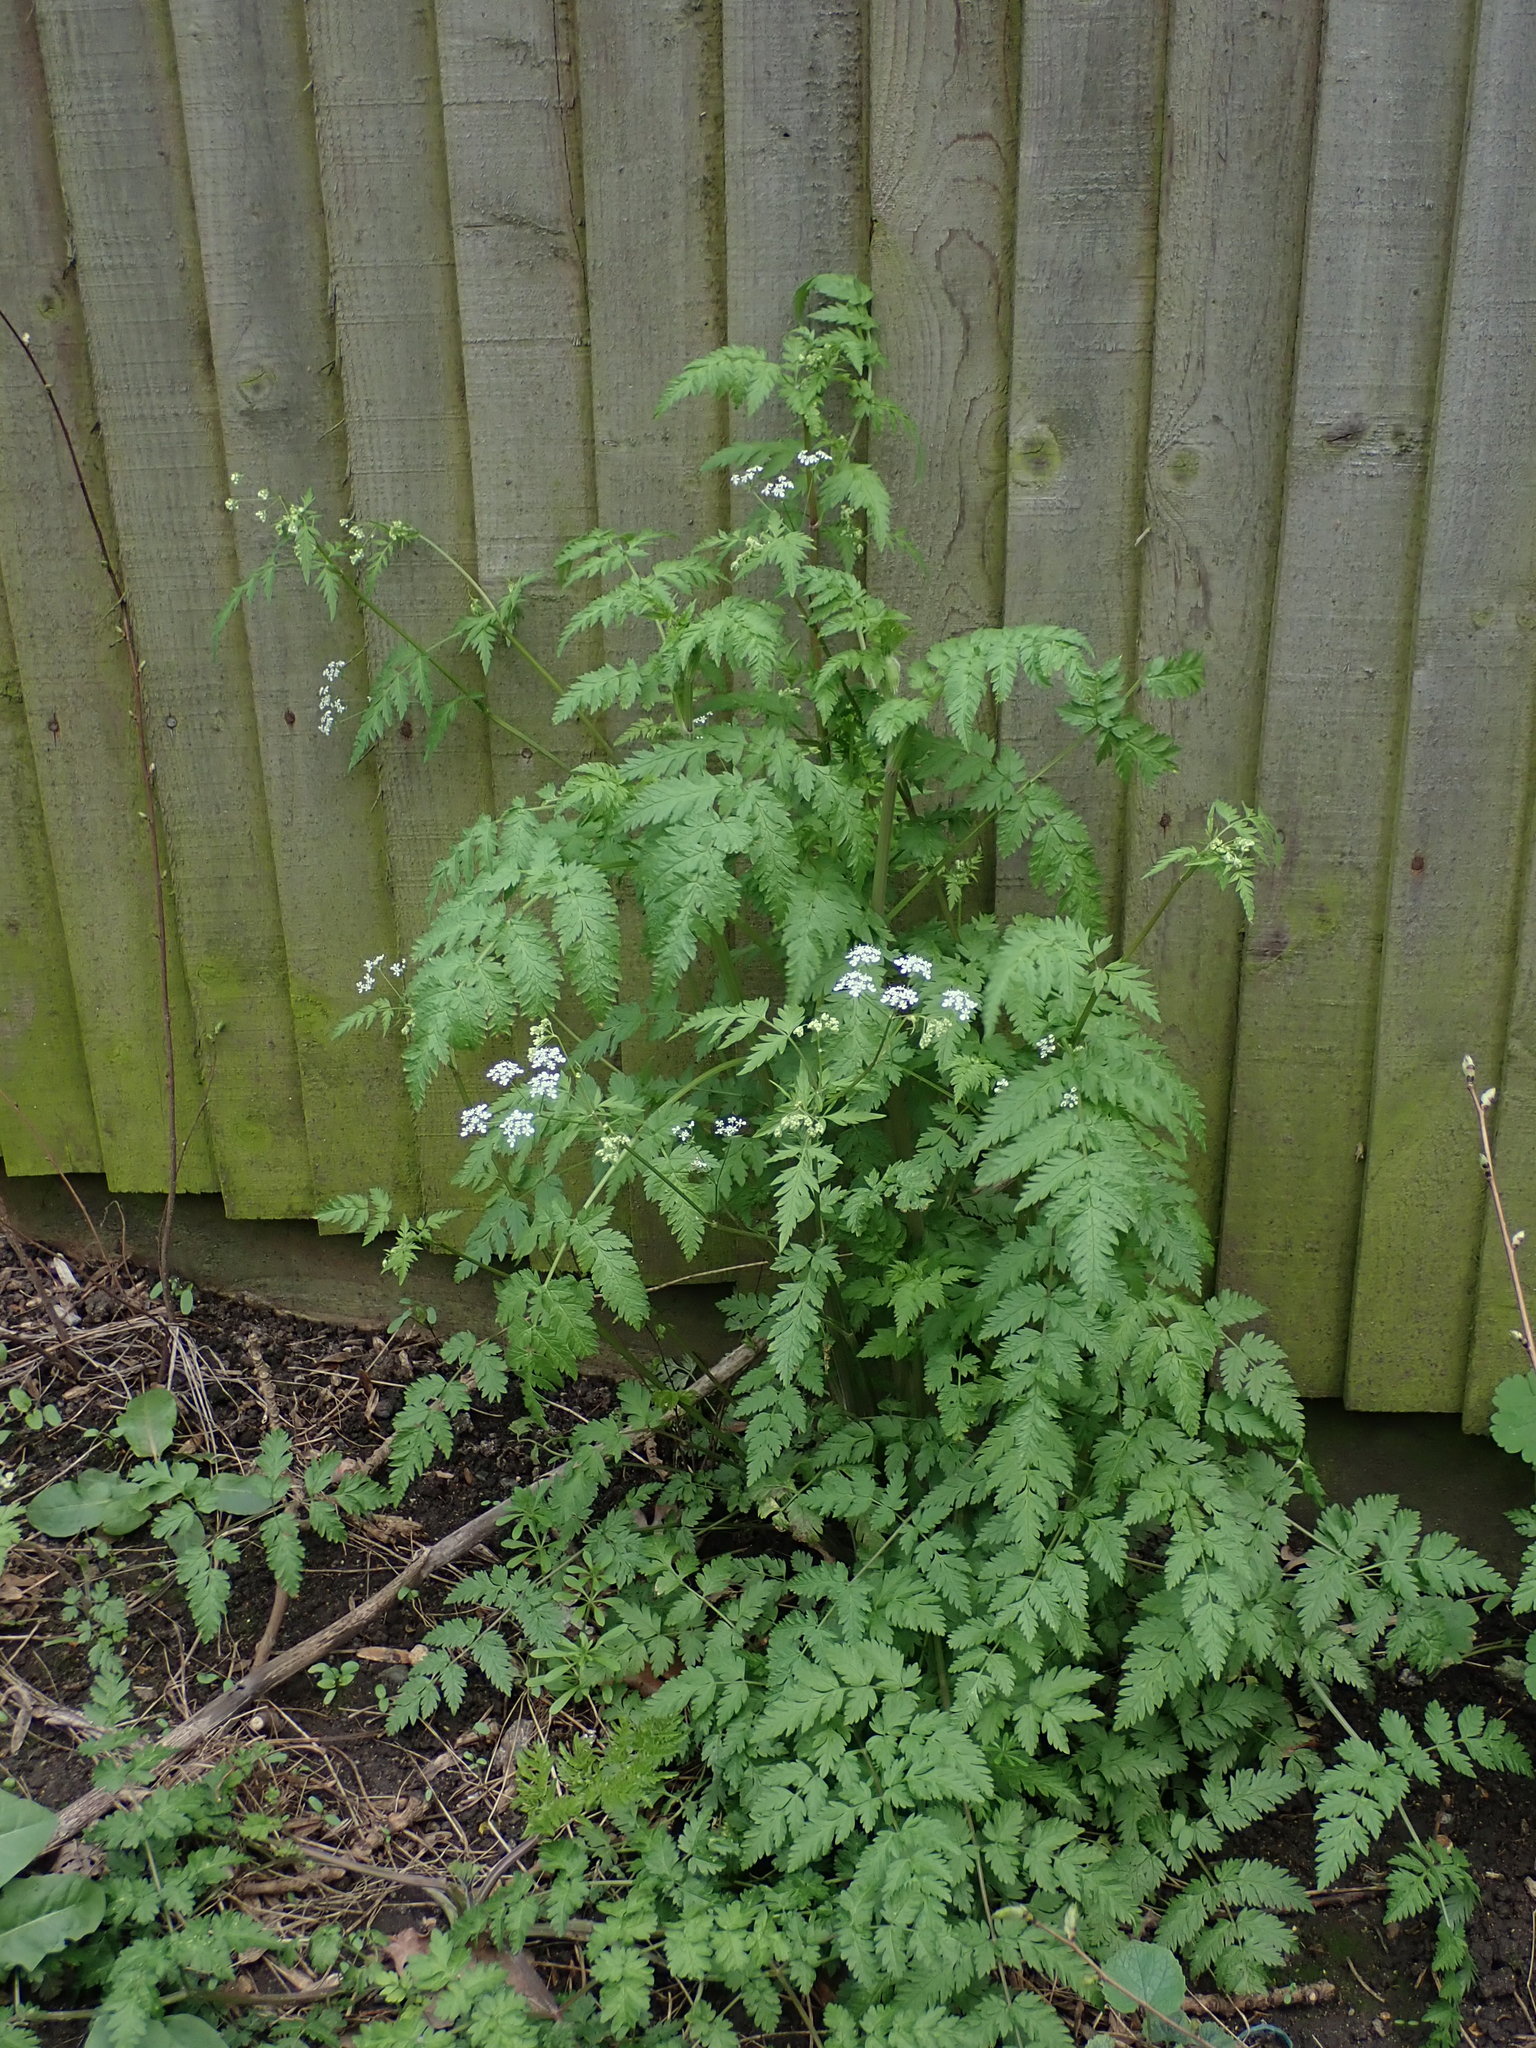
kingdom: Plantae
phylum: Tracheophyta
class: Magnoliopsida
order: Apiales
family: Apiaceae
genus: Anthriscus
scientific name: Anthriscus sylvestris
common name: Cow parsley
